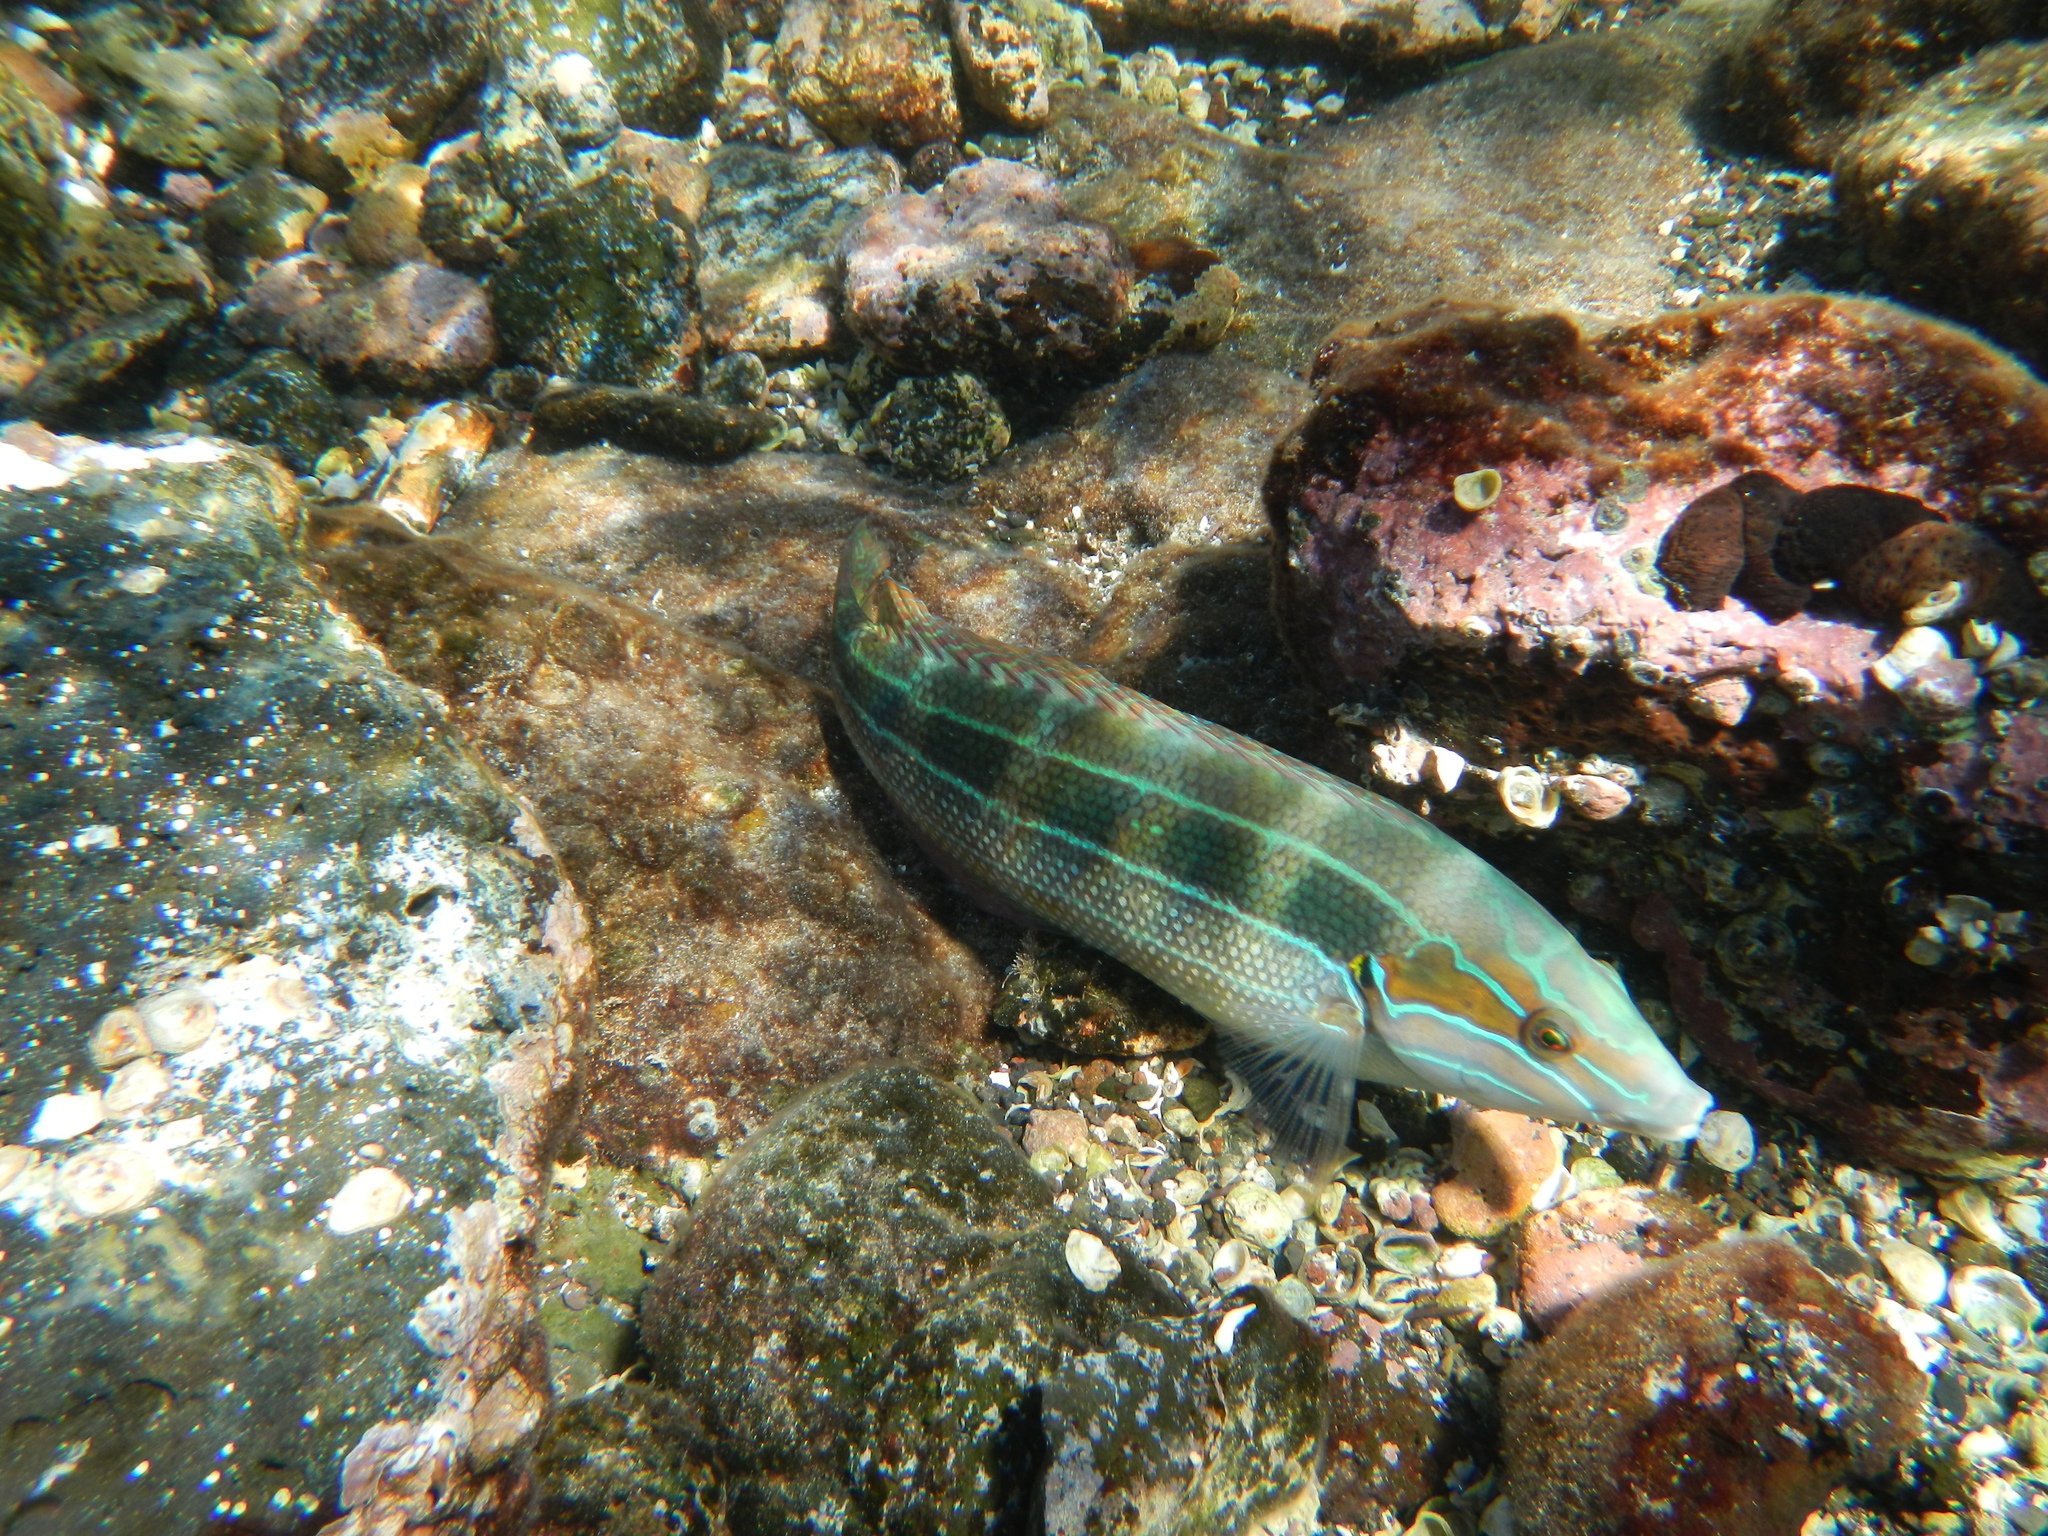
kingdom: Animalia
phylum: Chordata
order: Perciformes
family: Labridae
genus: Coris
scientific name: Coris debueni
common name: Debuen's coris
